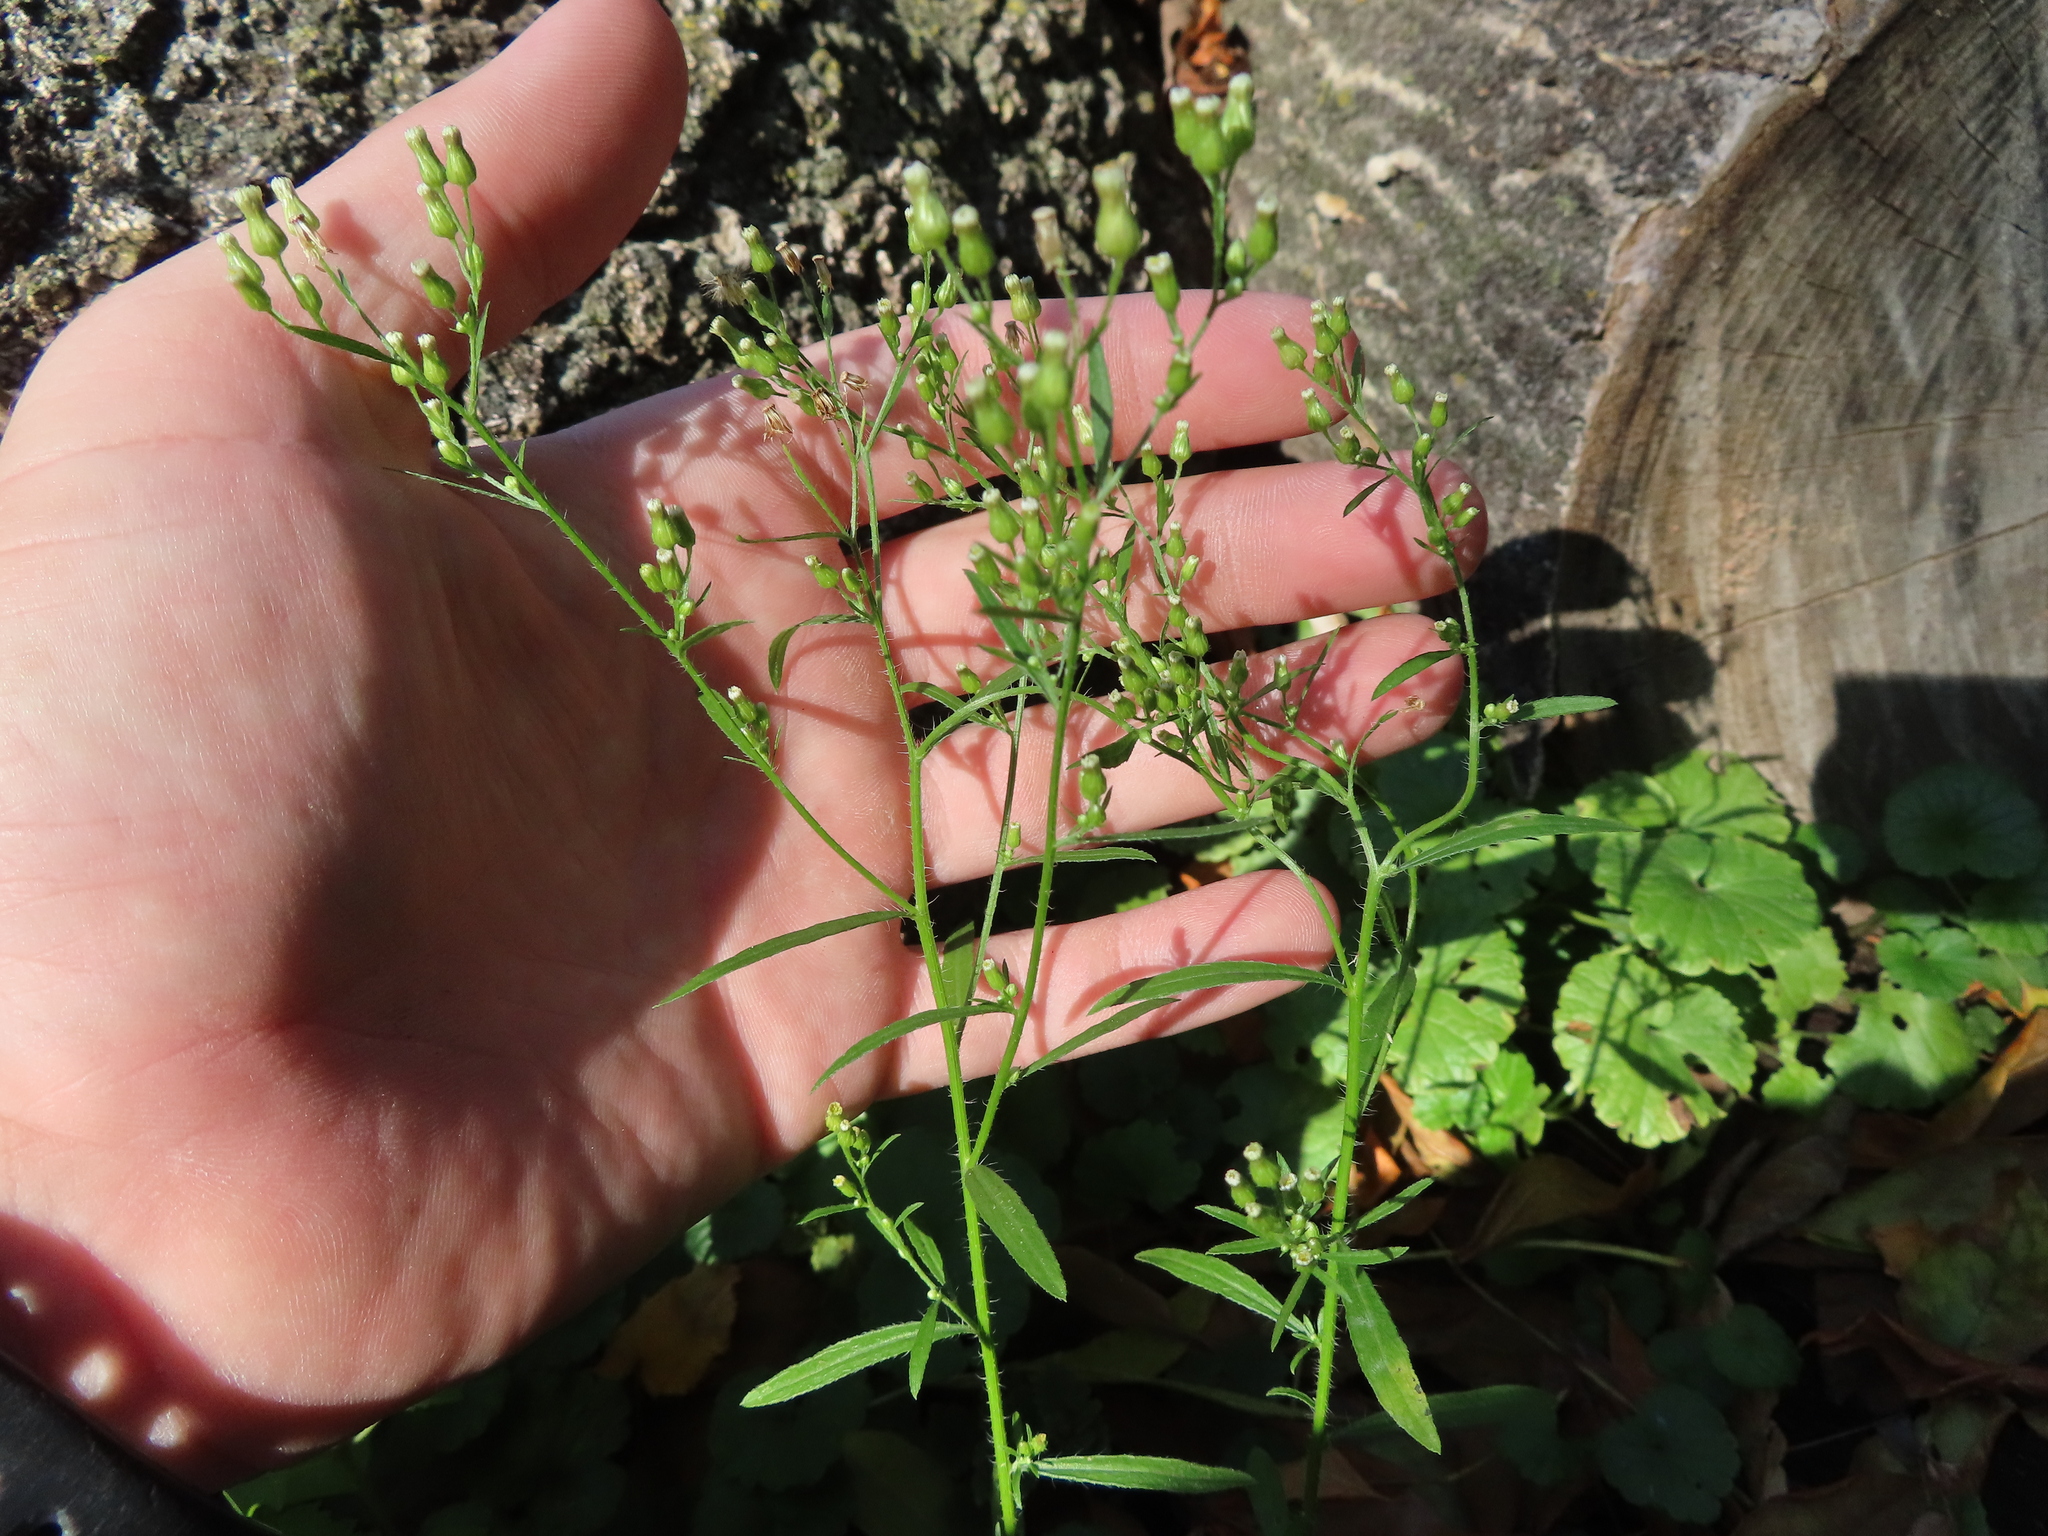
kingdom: Plantae
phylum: Tracheophyta
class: Magnoliopsida
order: Asterales
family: Asteraceae
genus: Erigeron
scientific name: Erigeron canadensis
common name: Canadian fleabane
